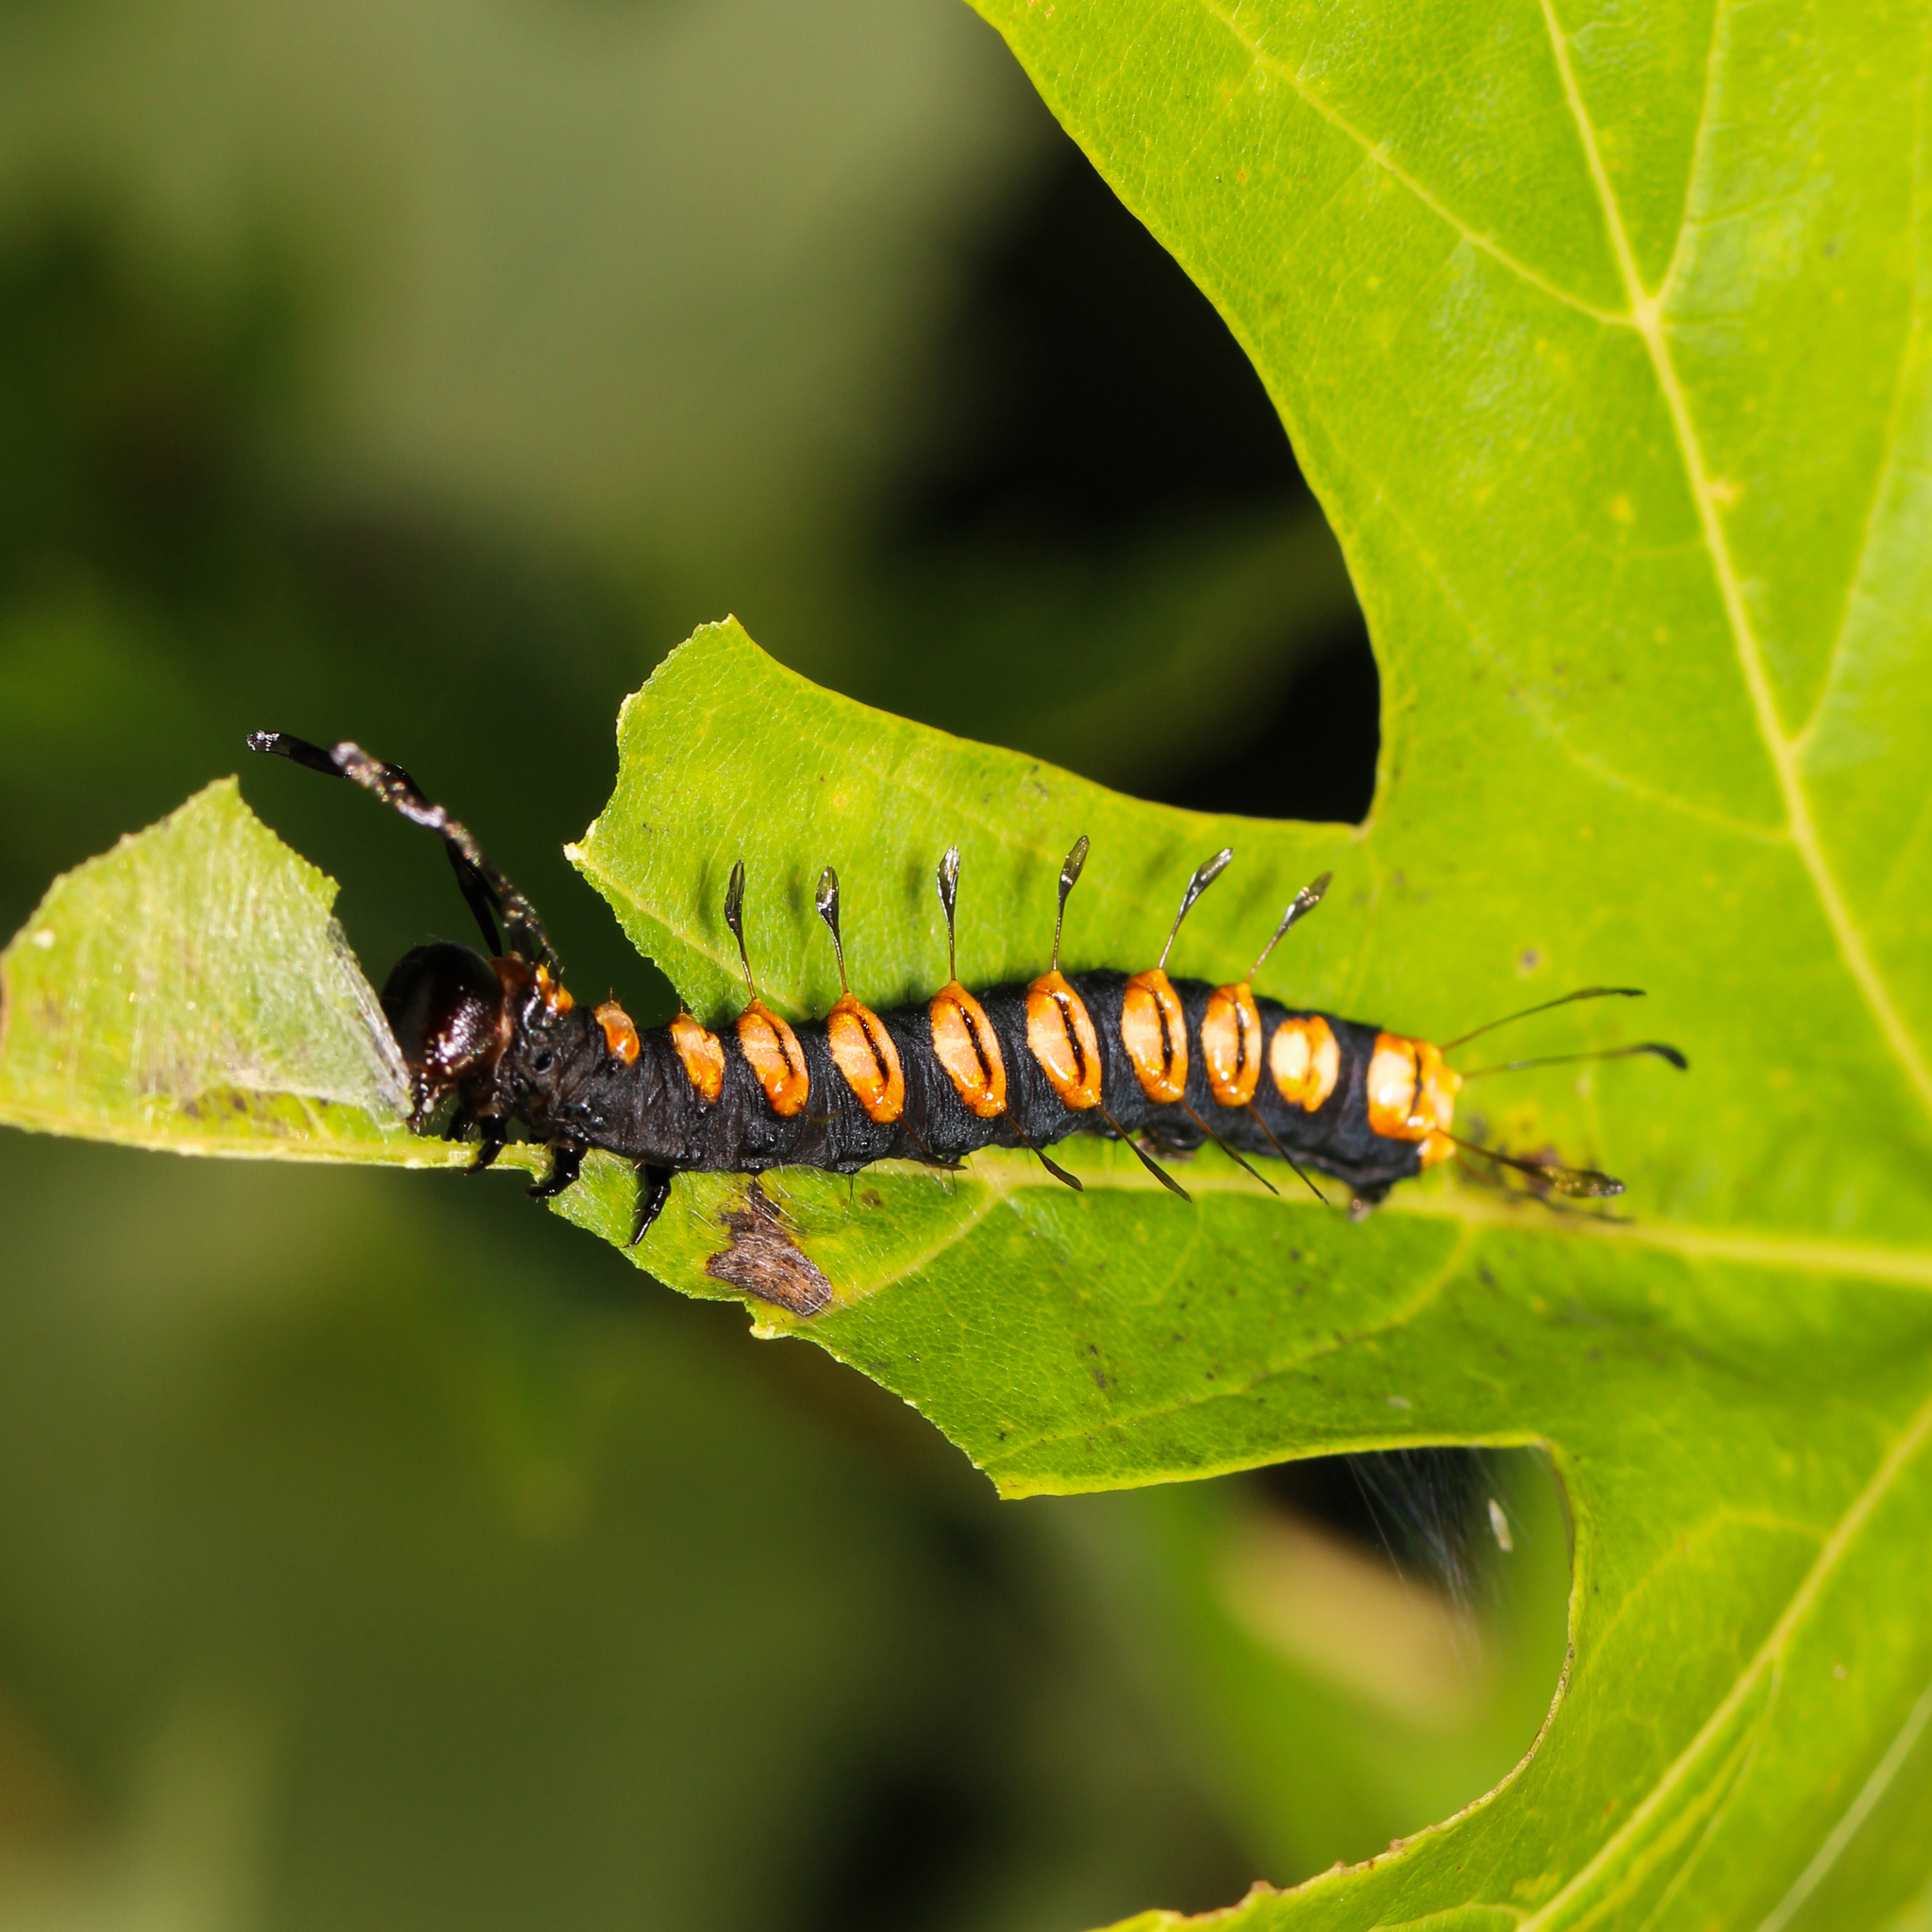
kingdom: Animalia
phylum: Arthropoda
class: Insecta
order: Lepidoptera
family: Noctuidae
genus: Acronicta
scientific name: Acronicta funeralis
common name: Funerary dagger
